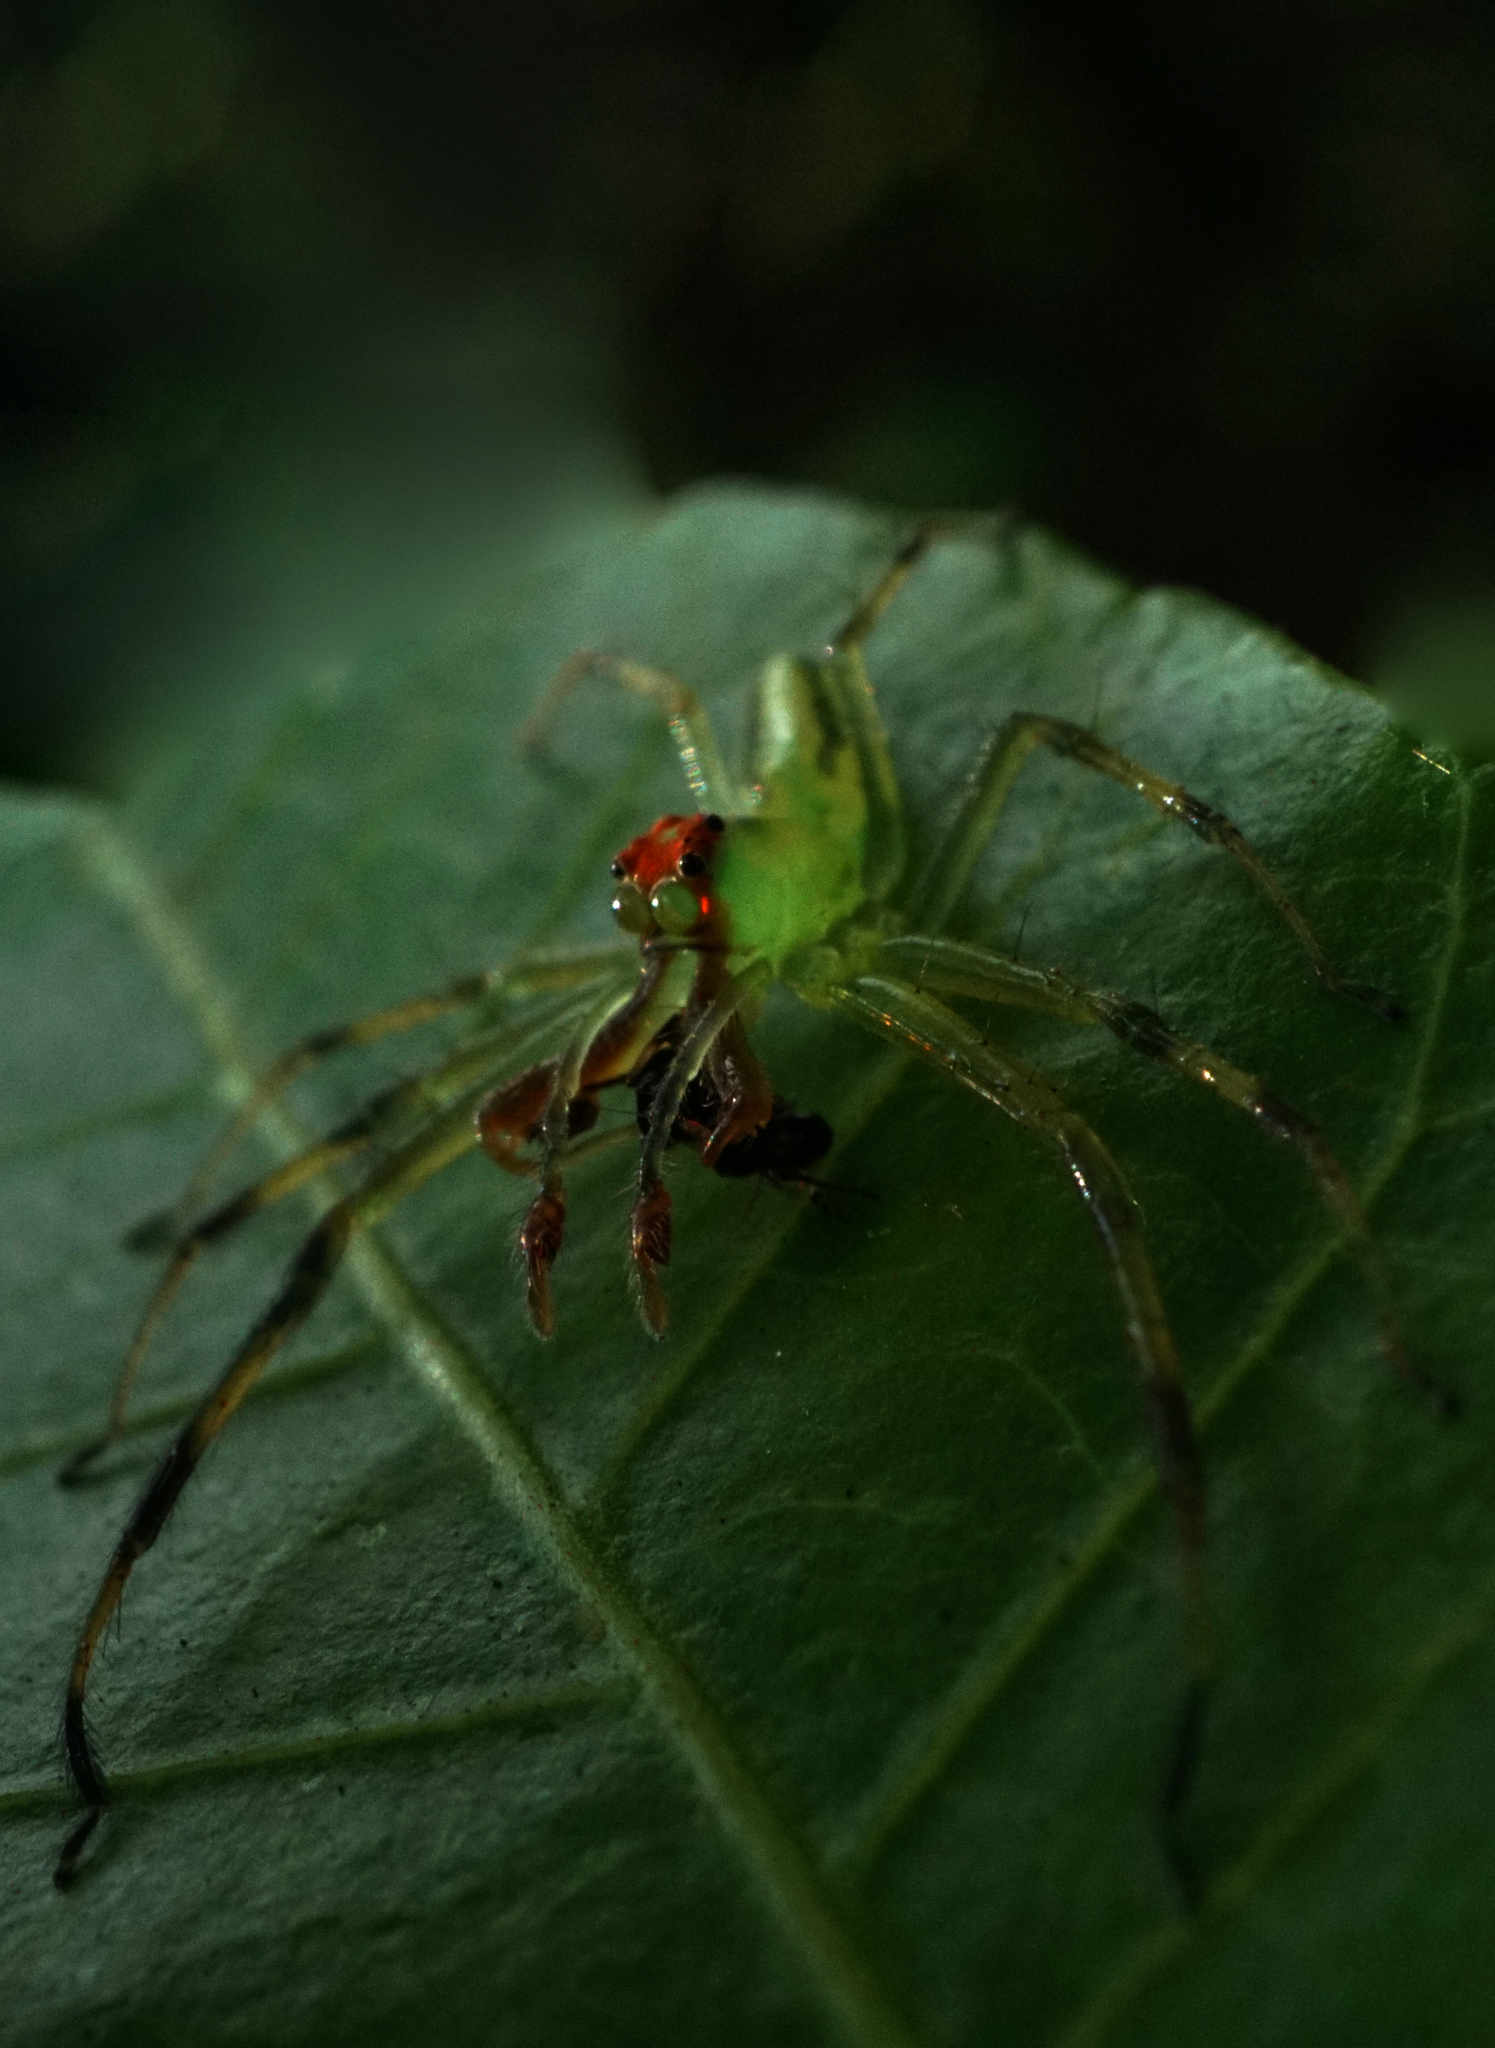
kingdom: Animalia
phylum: Arthropoda
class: Arachnida
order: Araneae
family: Salticidae
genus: Lyssomanes
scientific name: Lyssomanes viridis
